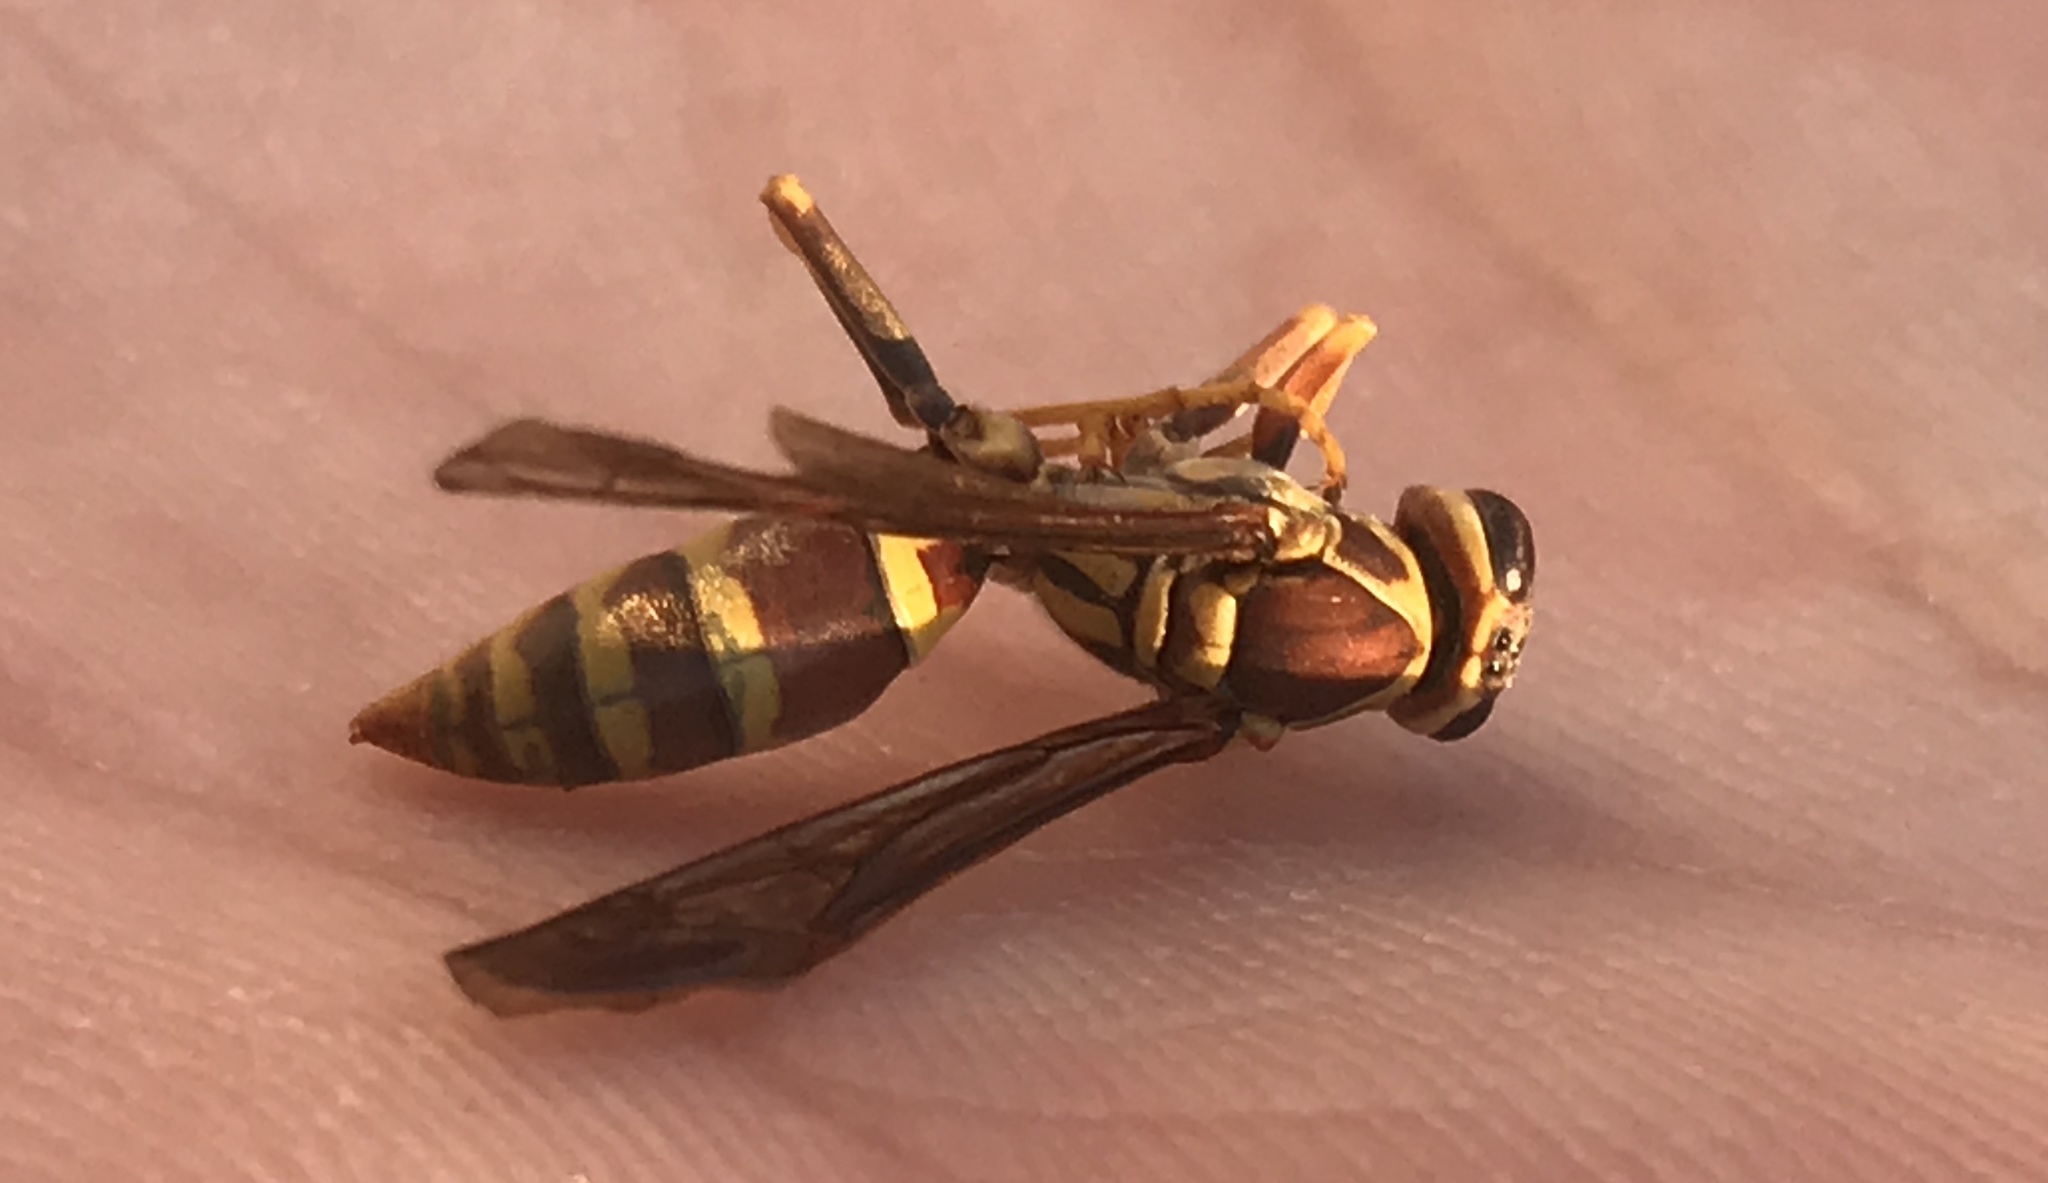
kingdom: Animalia
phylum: Arthropoda
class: Insecta
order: Hymenoptera
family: Eumenidae
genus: Polistes
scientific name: Polistes exclamans
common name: Paper wasp
